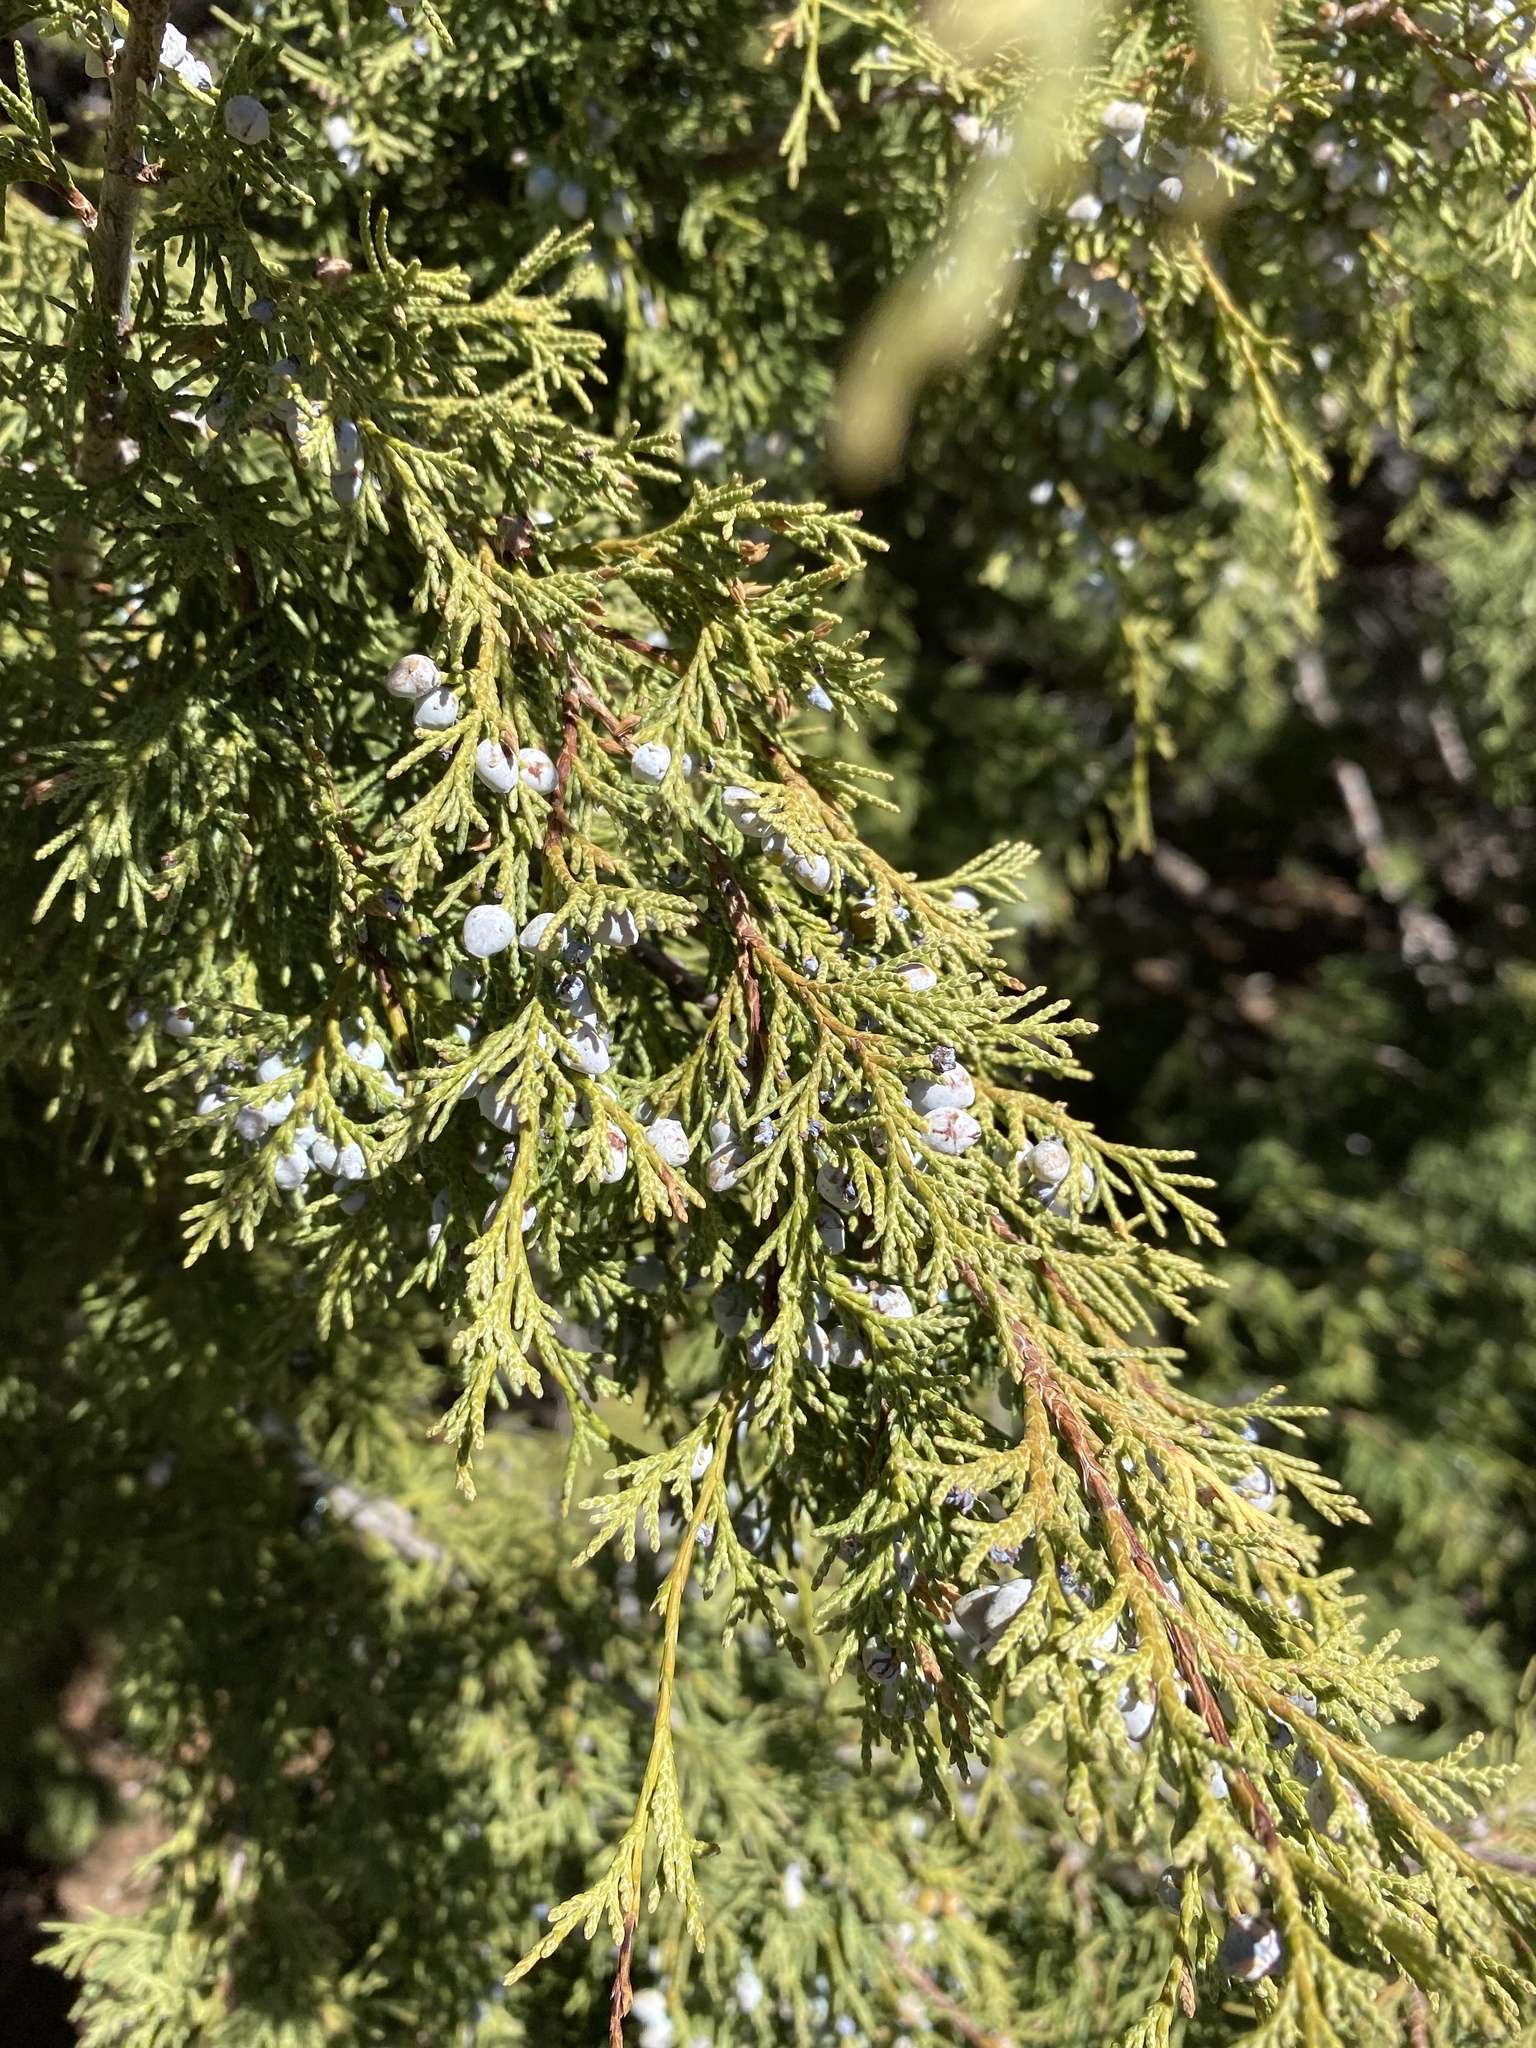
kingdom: Plantae
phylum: Tracheophyta
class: Pinopsida
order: Pinales
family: Cupressaceae
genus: Juniperus
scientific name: Juniperus scopulorum
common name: Rocky mountain juniper
